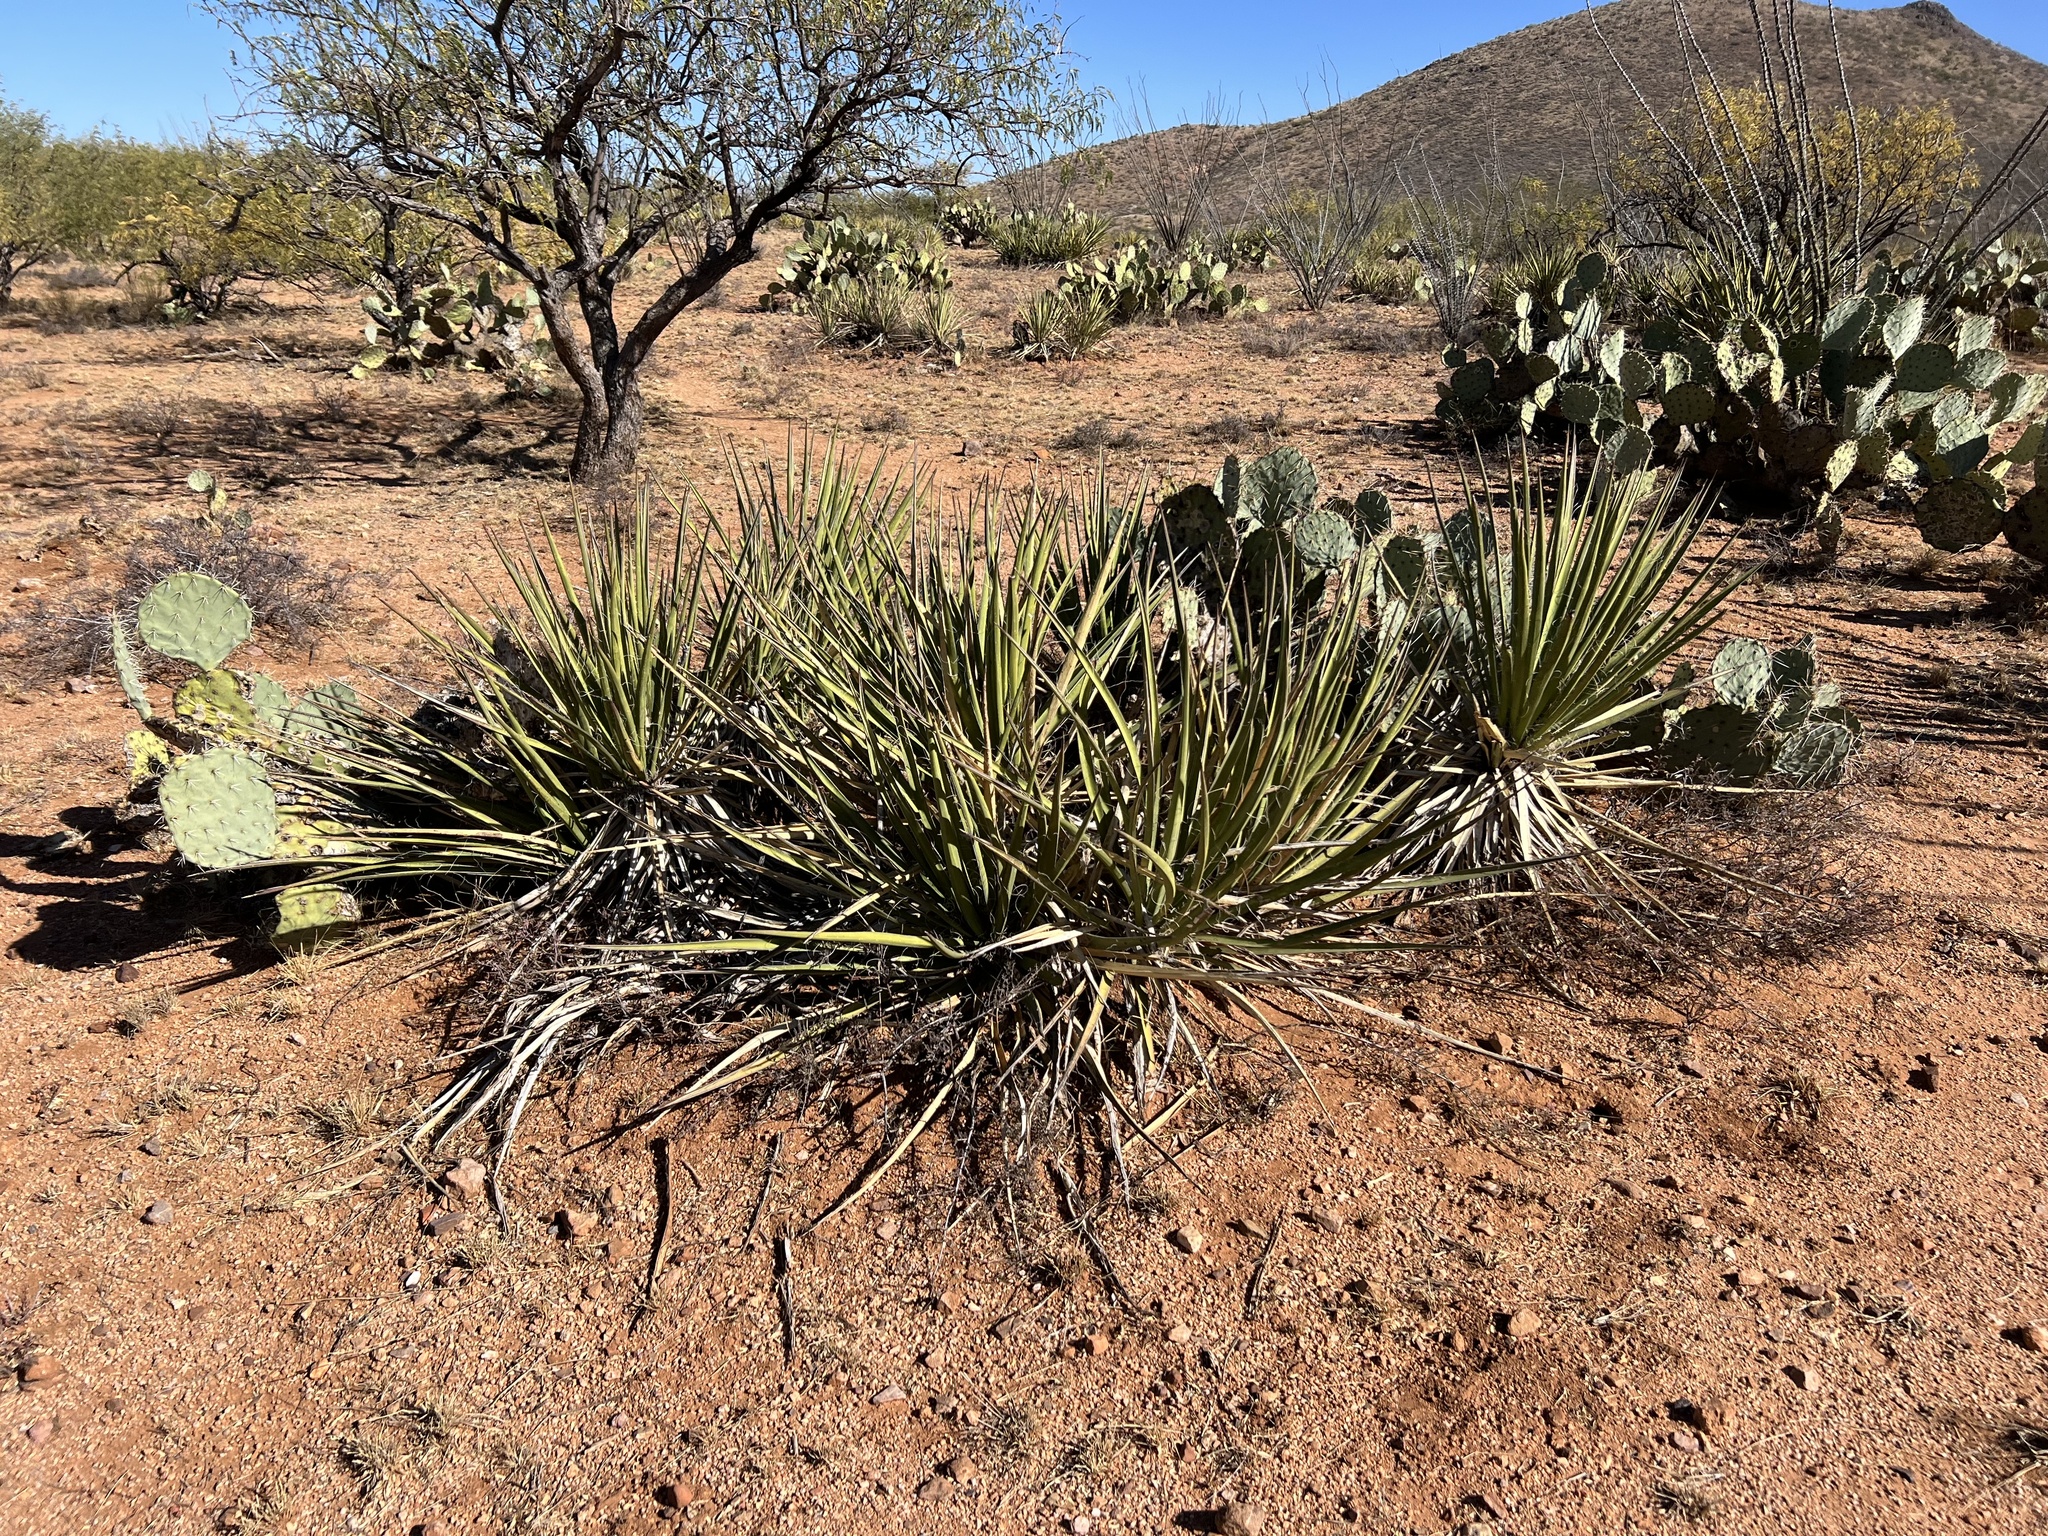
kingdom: Plantae
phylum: Tracheophyta
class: Liliopsida
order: Asparagales
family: Asparagaceae
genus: Yucca
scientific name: Yucca baccata
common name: Banana yucca
